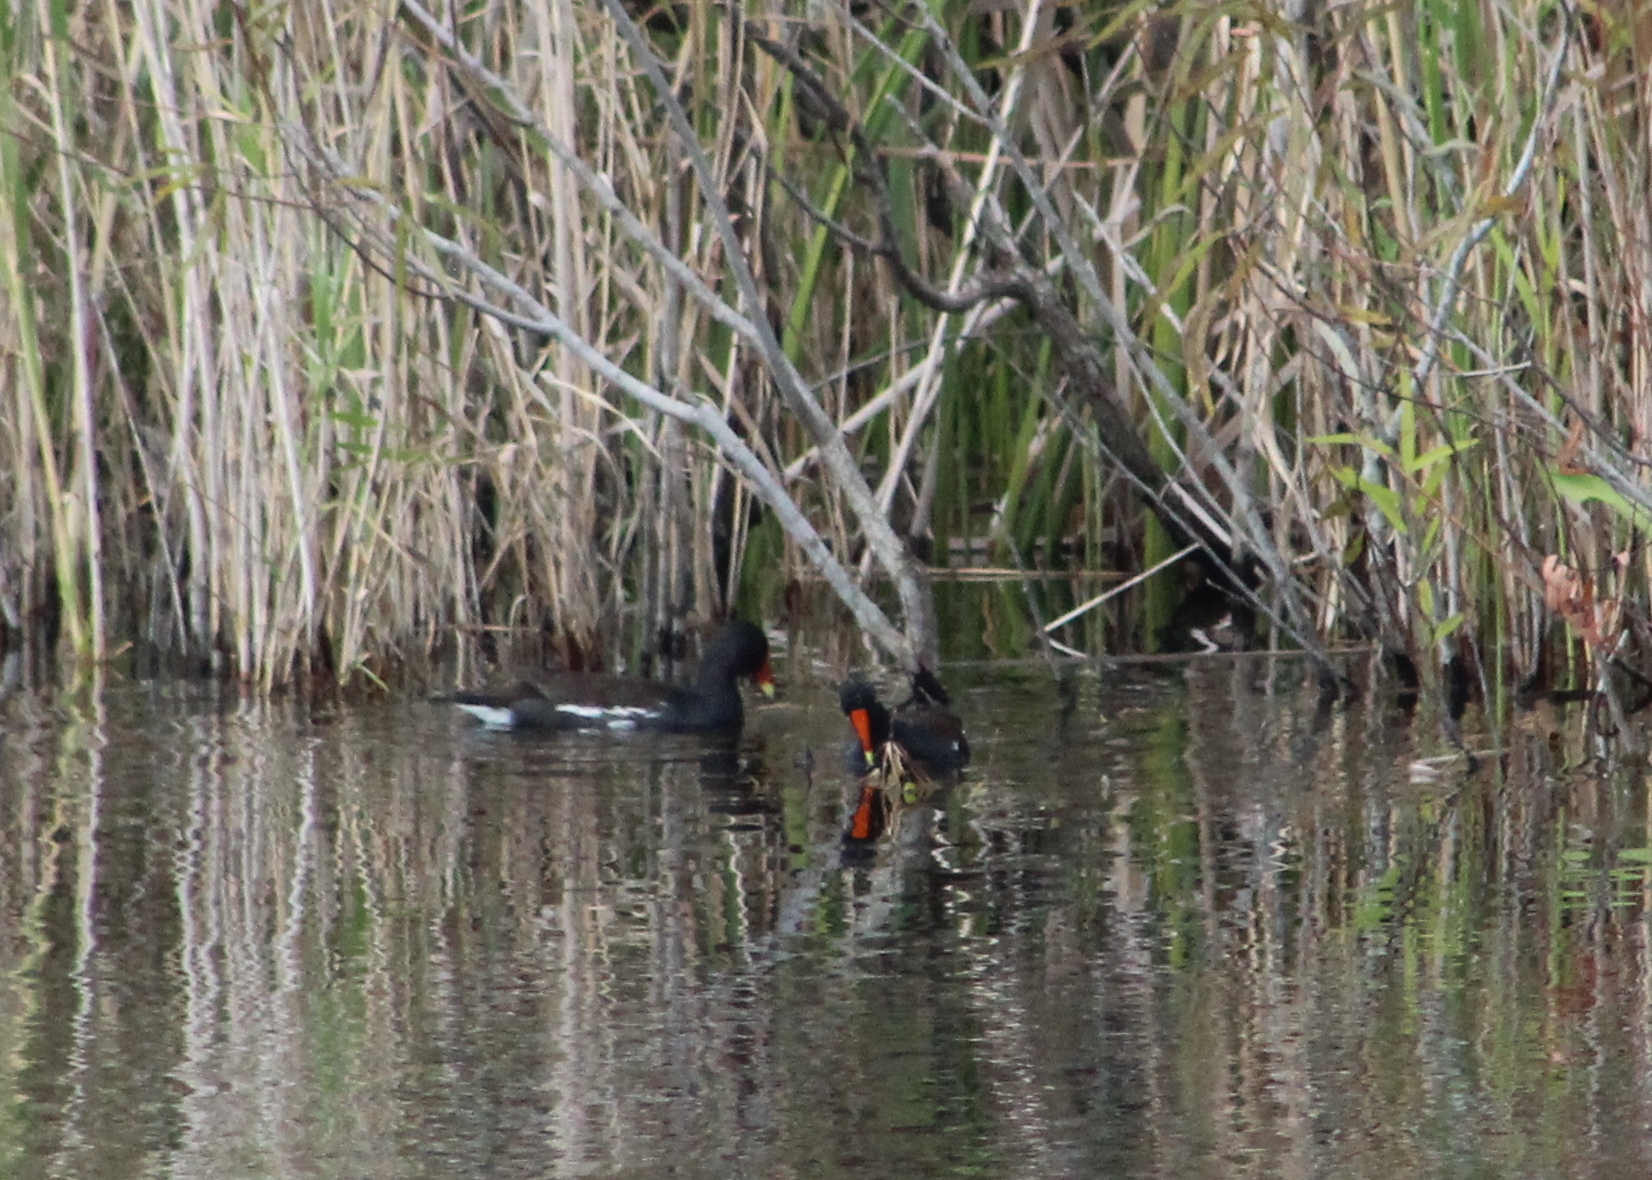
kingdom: Animalia
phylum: Chordata
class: Aves
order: Gruiformes
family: Rallidae
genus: Gallinula
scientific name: Gallinula chloropus
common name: Common moorhen
